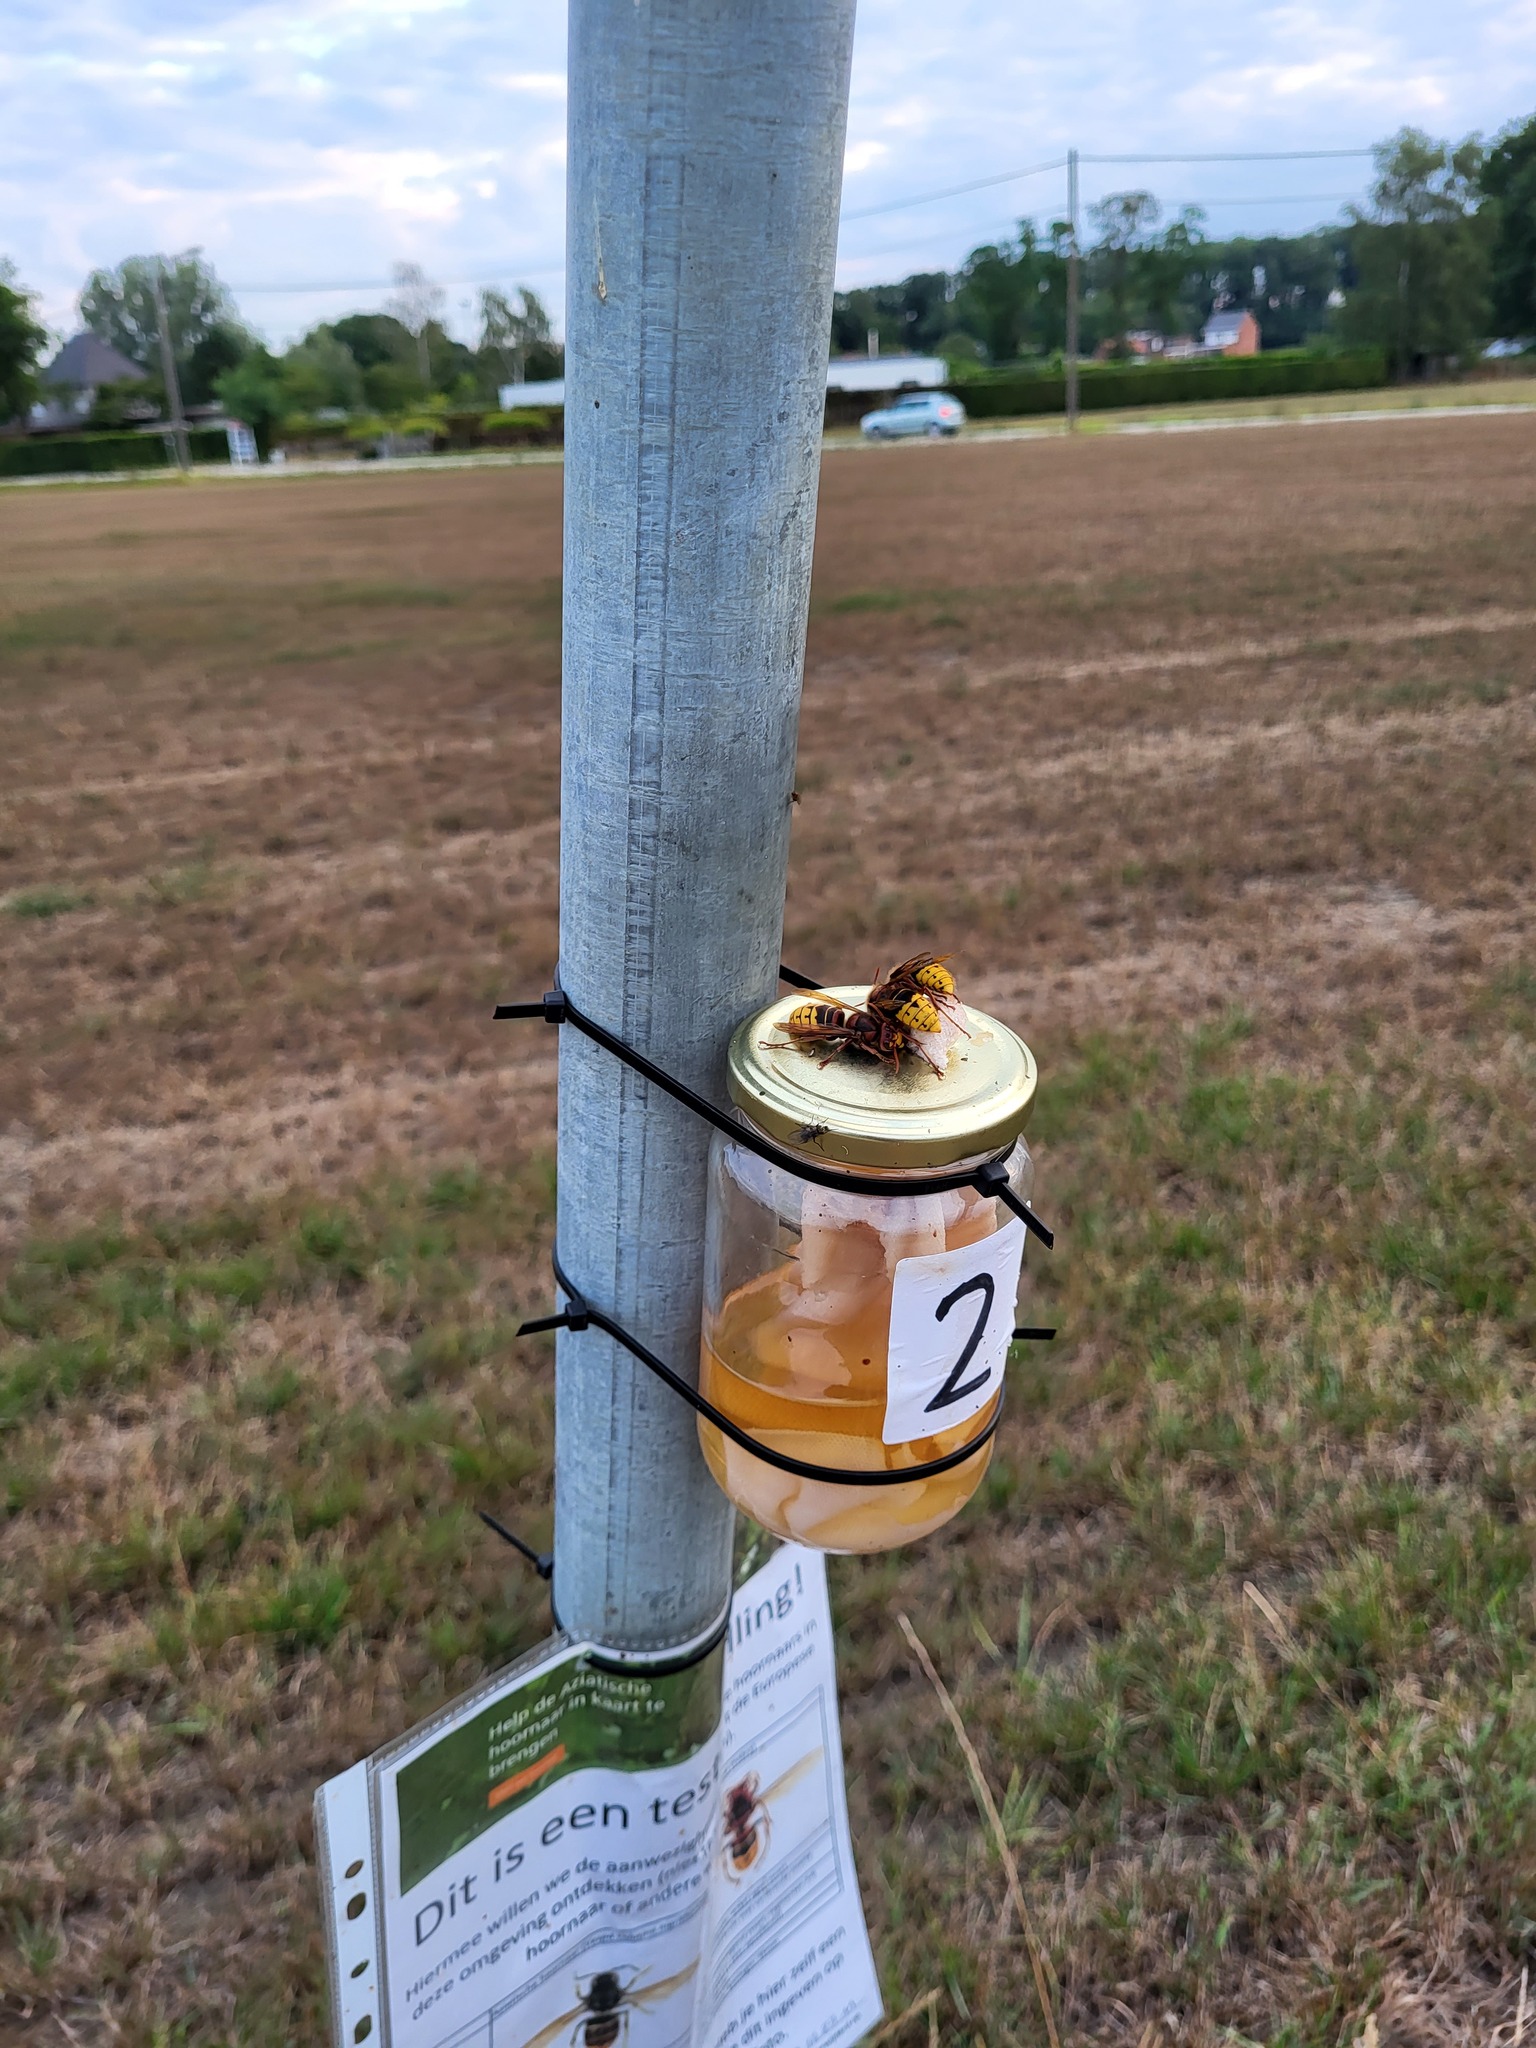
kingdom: Animalia
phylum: Arthropoda
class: Insecta
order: Hymenoptera
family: Vespidae
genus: Vespa
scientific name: Vespa crabro
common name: Hornet
